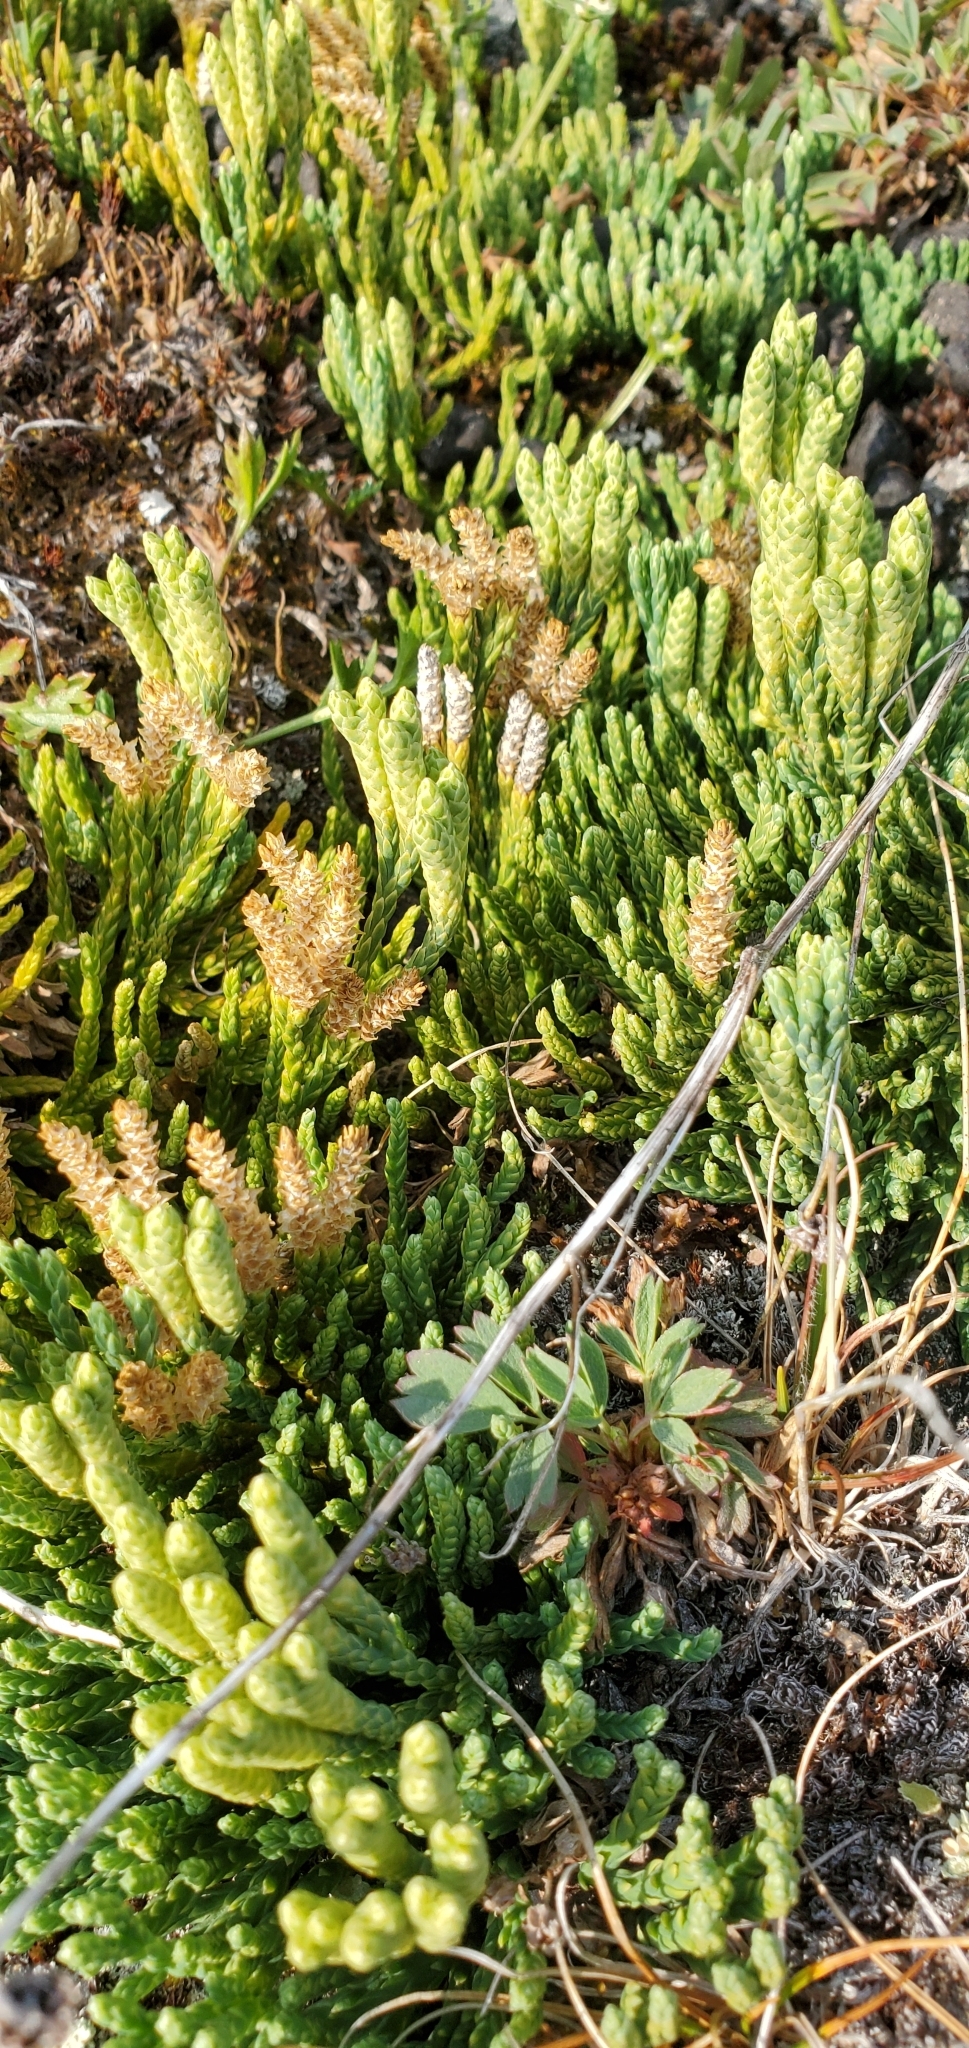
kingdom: Plantae
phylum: Tracheophyta
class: Lycopodiopsida
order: Lycopodiales
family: Lycopodiaceae
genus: Diphasiastrum
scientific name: Diphasiastrum alpinum
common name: Alpine clubmoss
